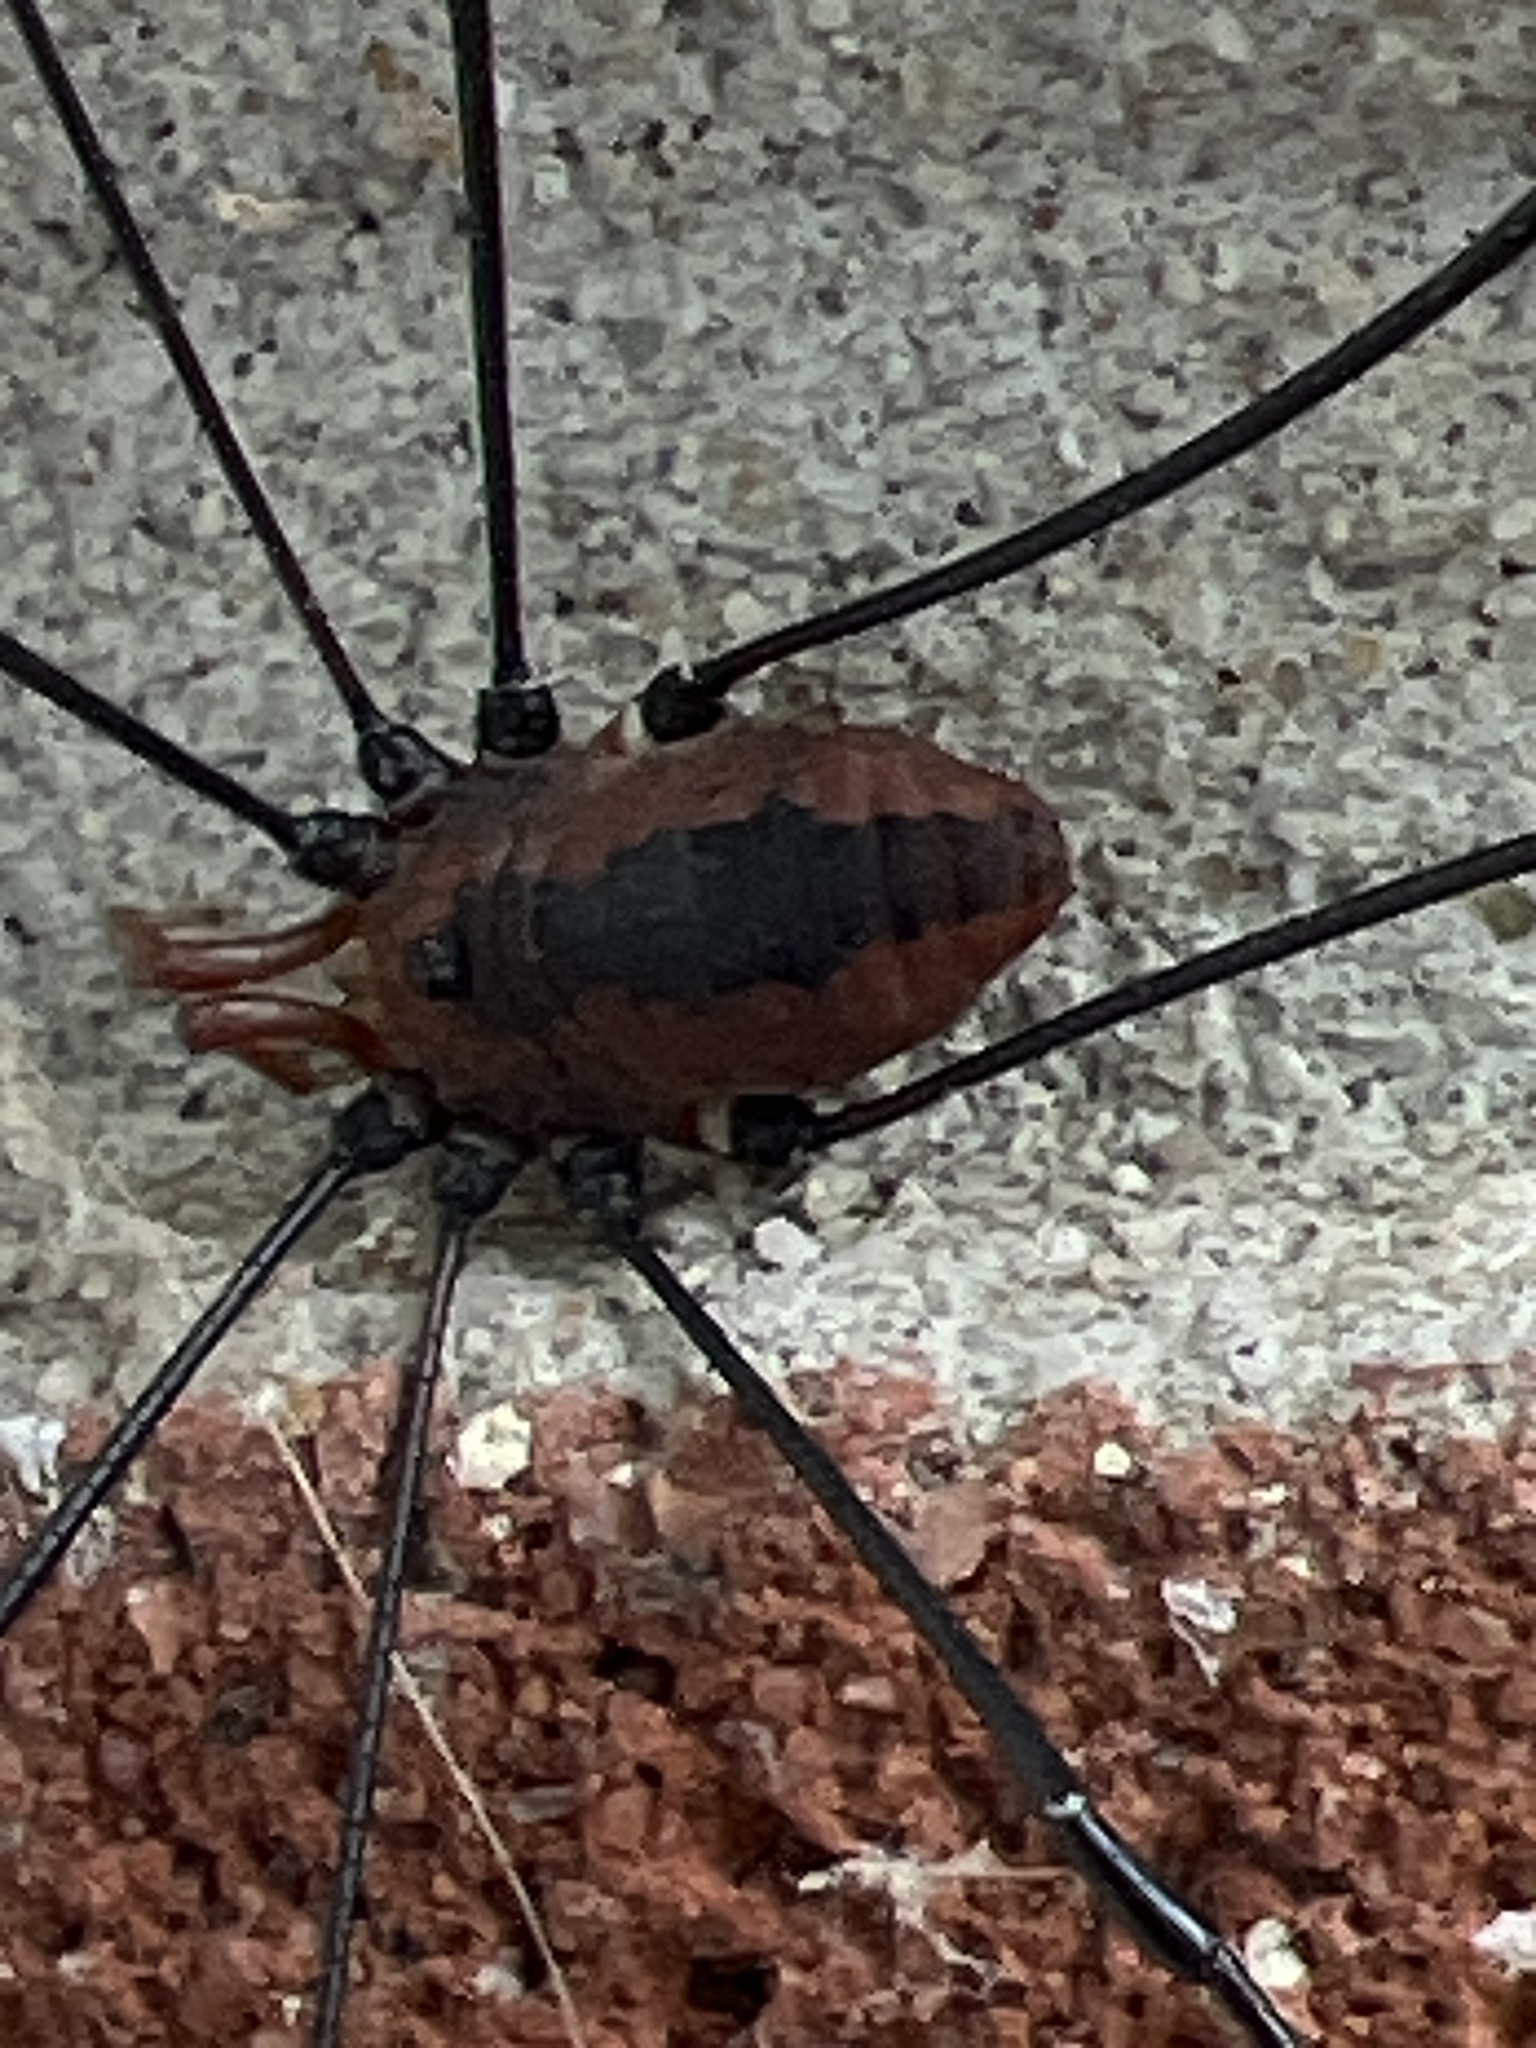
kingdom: Animalia
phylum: Arthropoda
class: Arachnida
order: Opiliones
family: Sclerosomatidae
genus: Leiobunum
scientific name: Leiobunum vittatum
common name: Eastern harvestman
